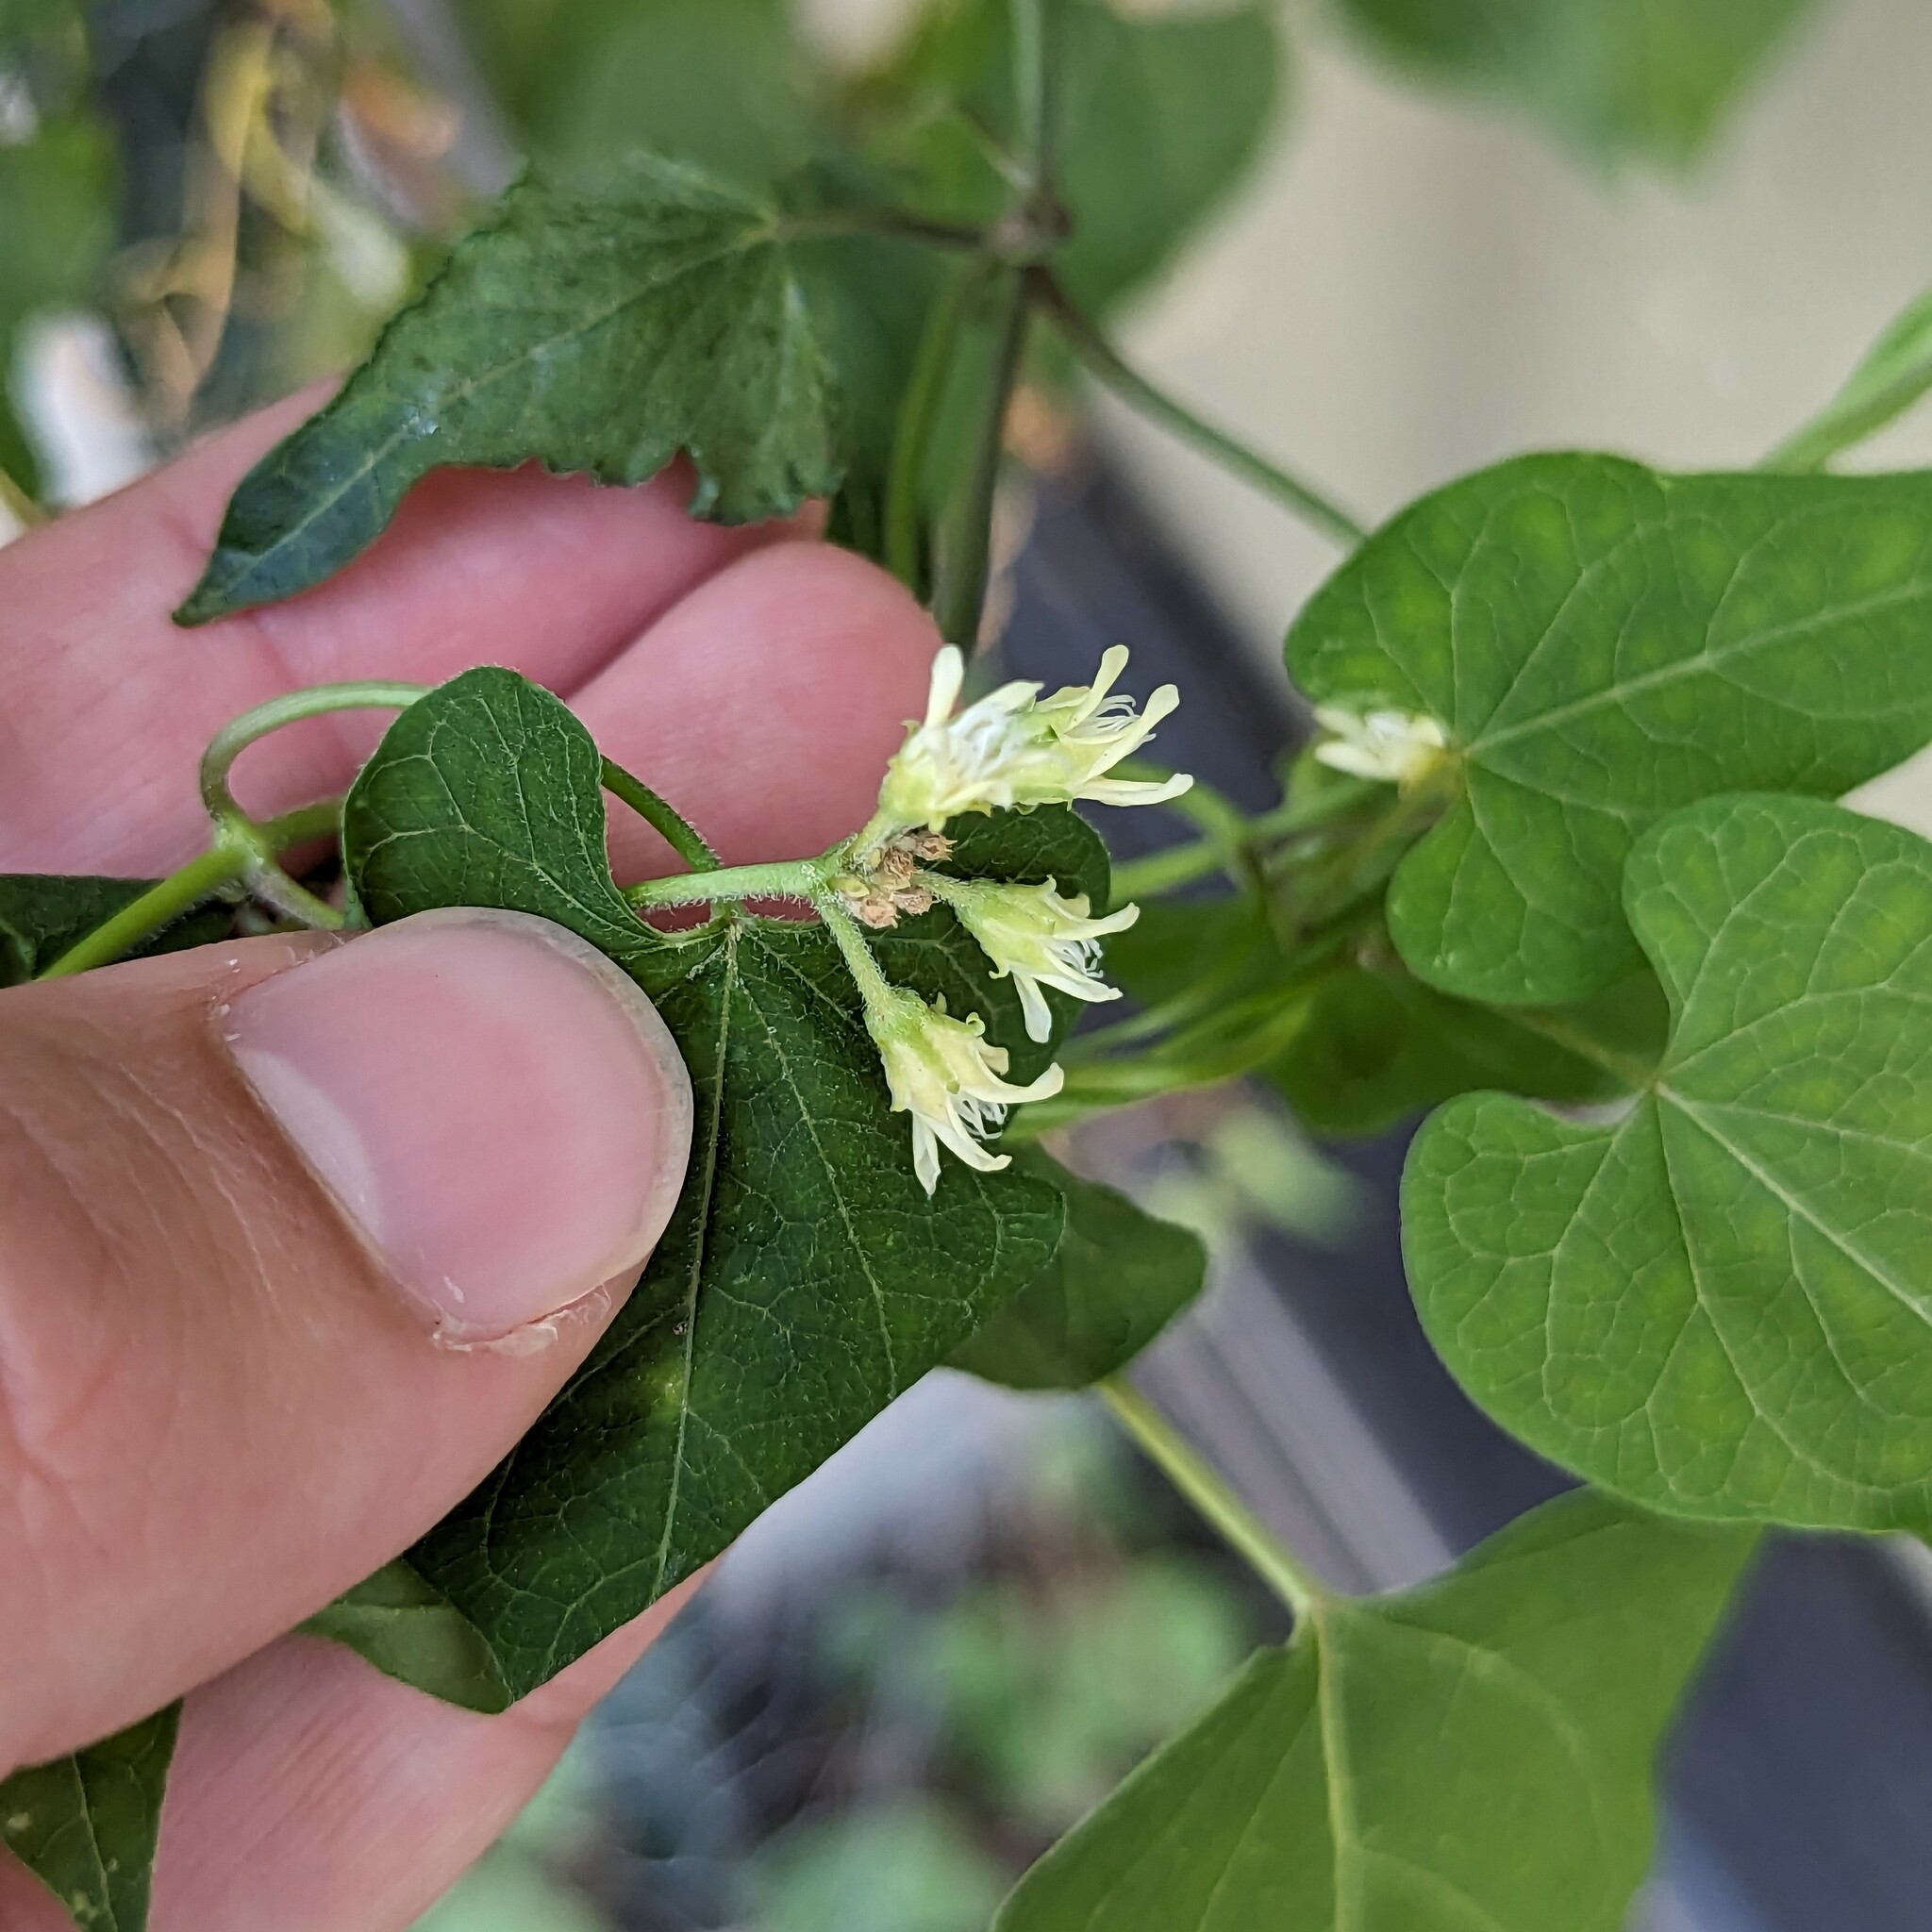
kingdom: Plantae
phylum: Tracheophyta
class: Magnoliopsida
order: Gentianales
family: Apocynaceae
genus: Cynanchum
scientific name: Cynanchum laeve
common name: Sandvine
